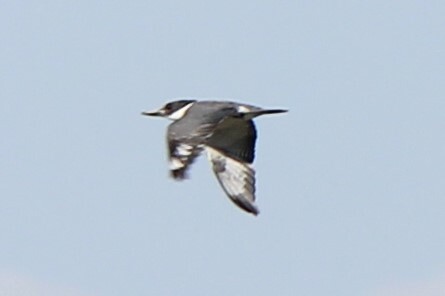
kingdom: Animalia
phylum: Chordata
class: Aves
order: Coraciiformes
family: Alcedinidae
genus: Megaceryle
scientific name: Megaceryle alcyon
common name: Belted kingfisher
